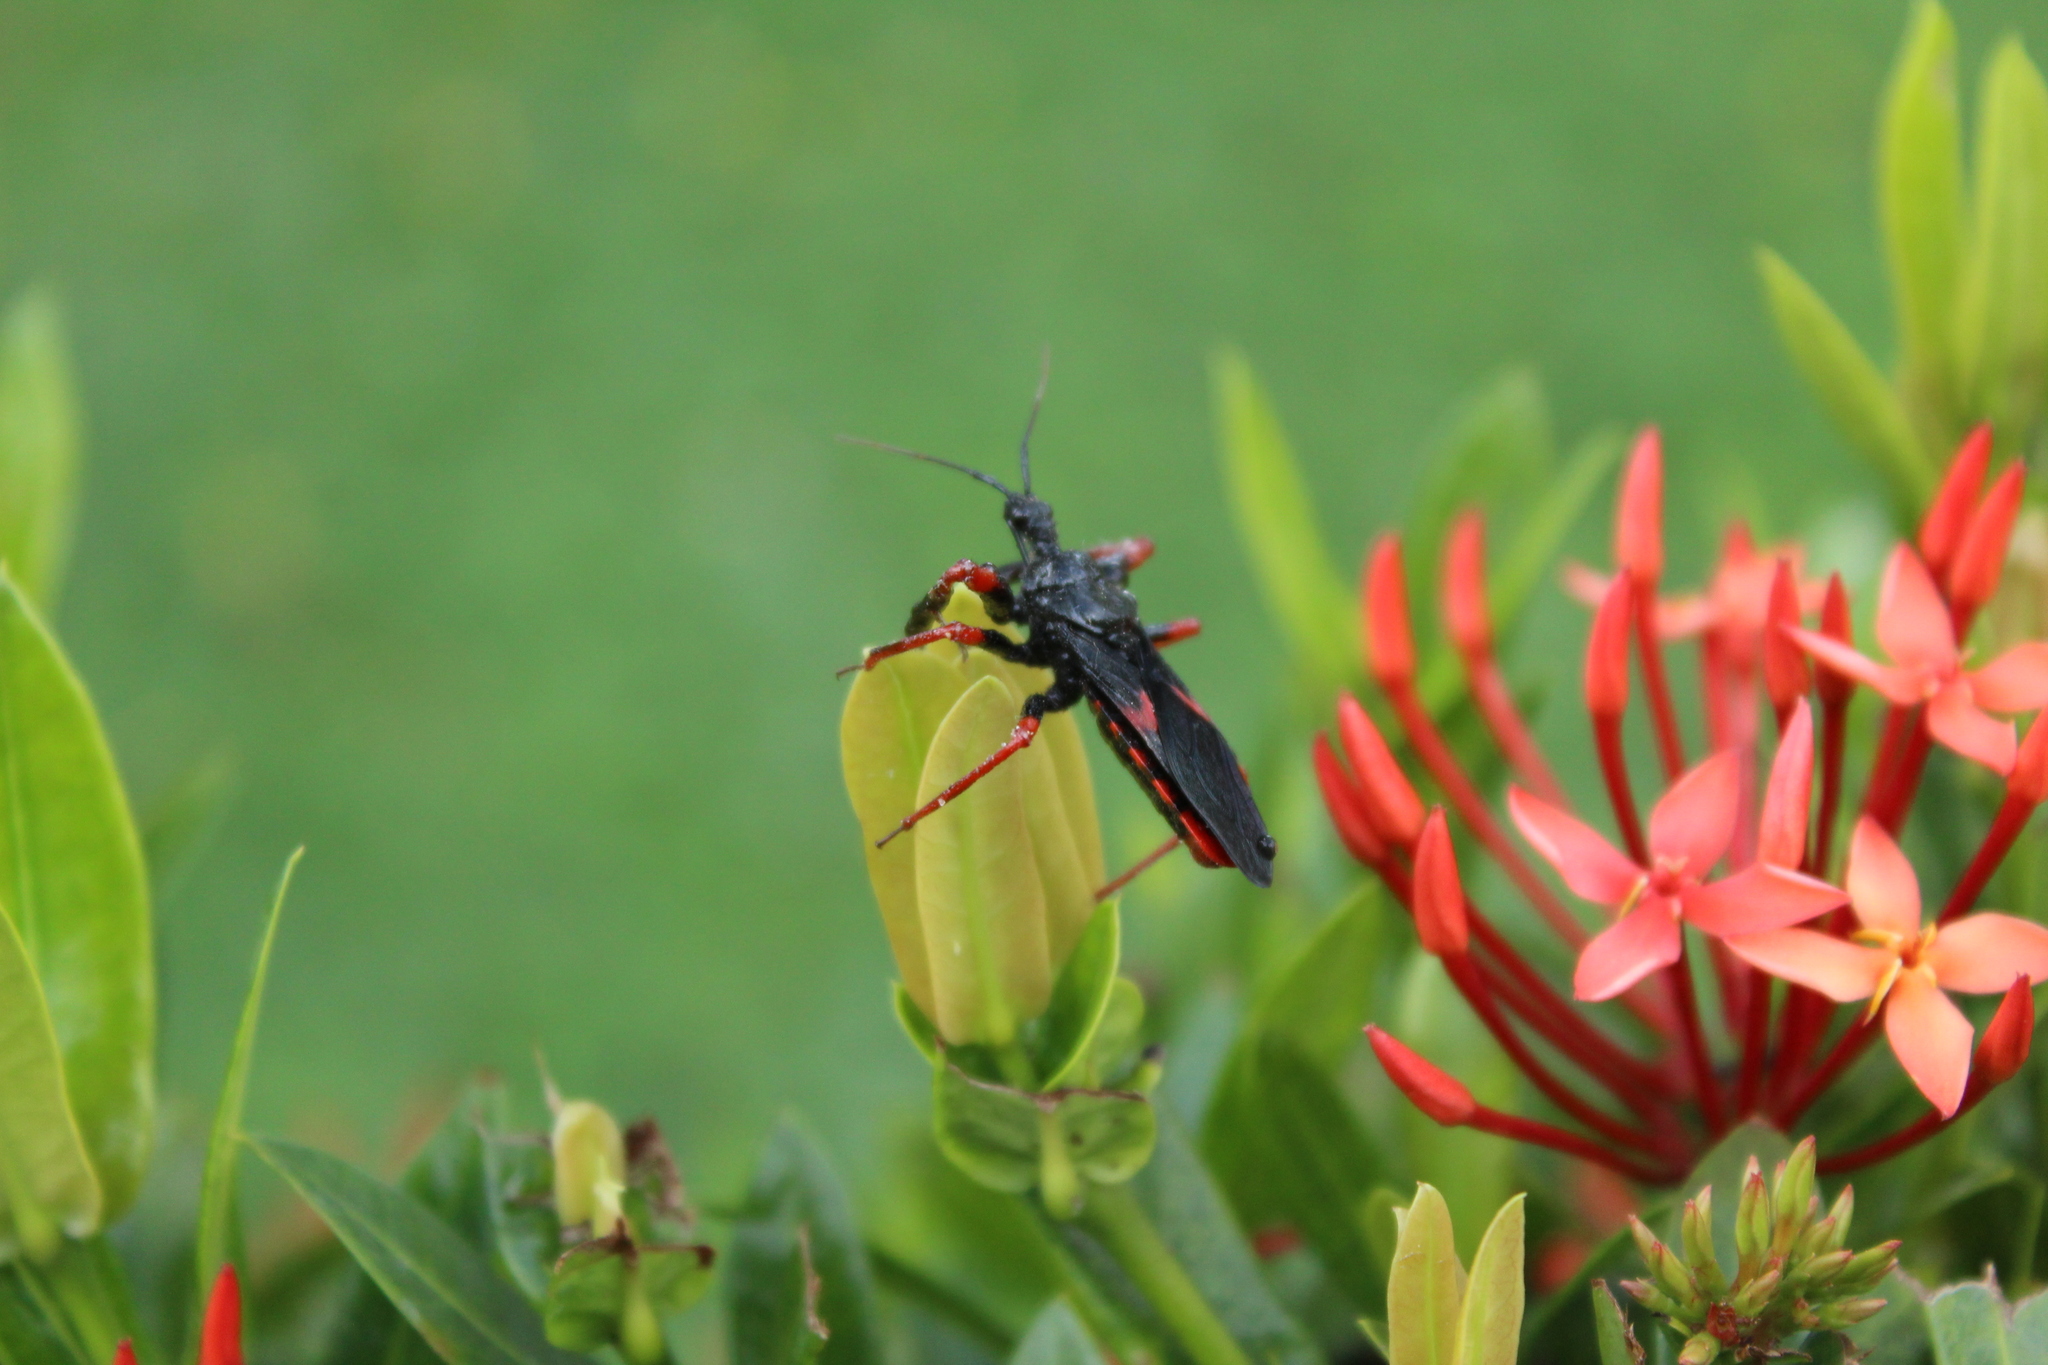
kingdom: Animalia
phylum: Arthropoda
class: Insecta
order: Hemiptera
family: Reduviidae
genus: Beharus
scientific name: Beharus cylindripes
